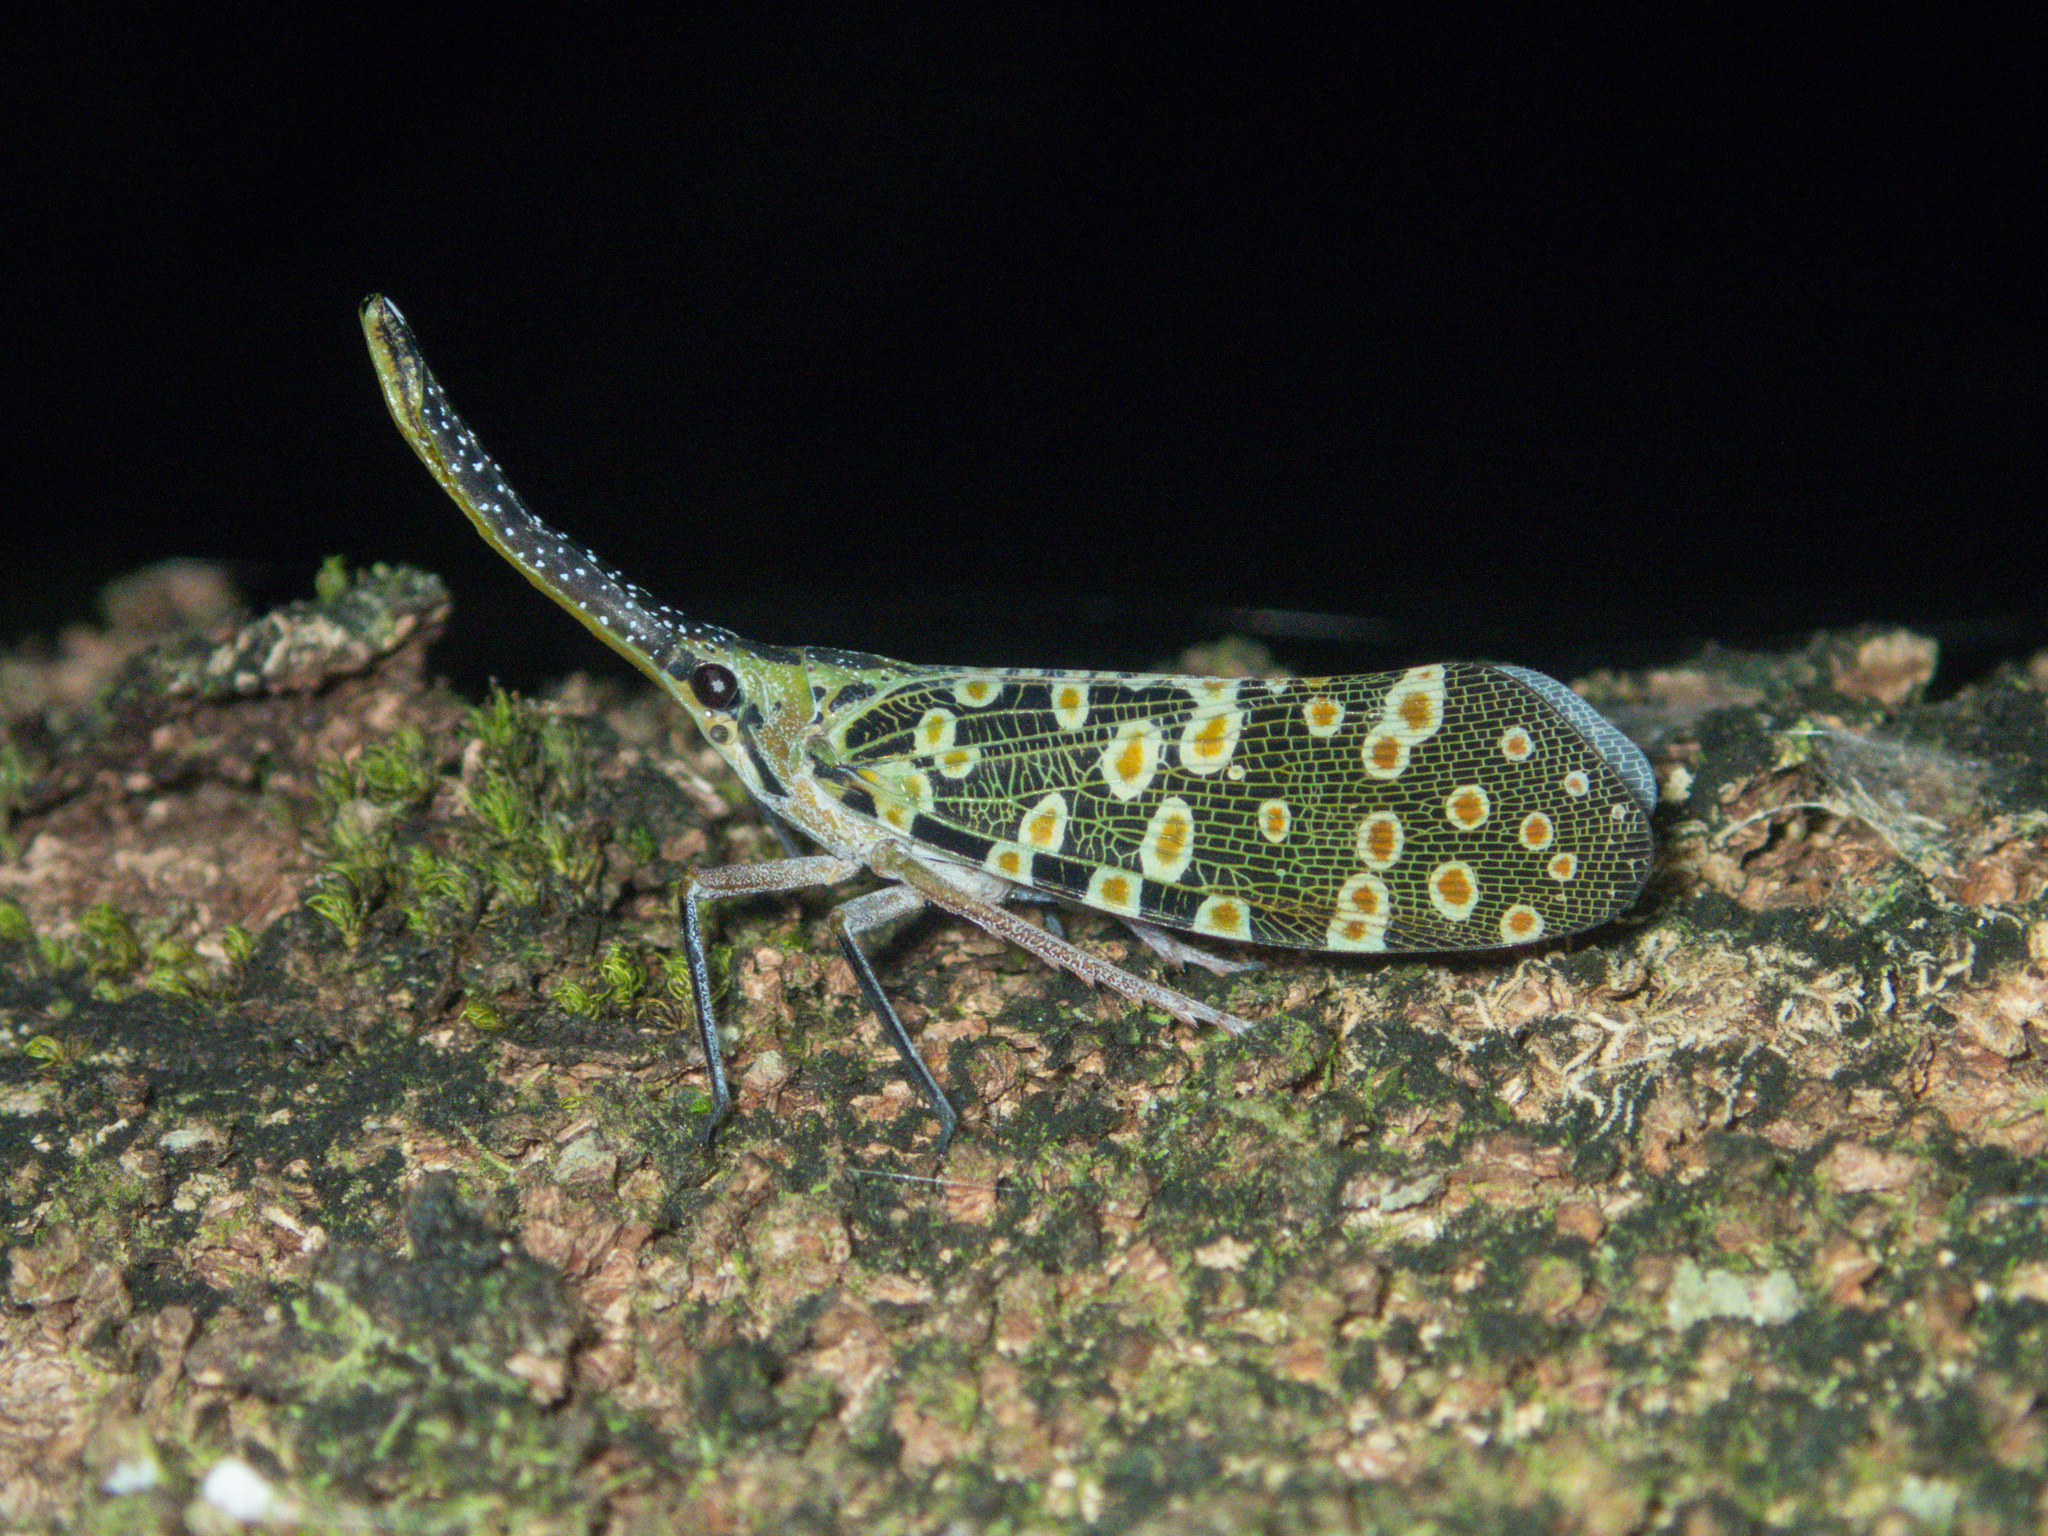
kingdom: Animalia
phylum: Arthropoda
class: Insecta
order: Hemiptera
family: Fulgoridae
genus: Pyrops
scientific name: Pyrops condorinus
